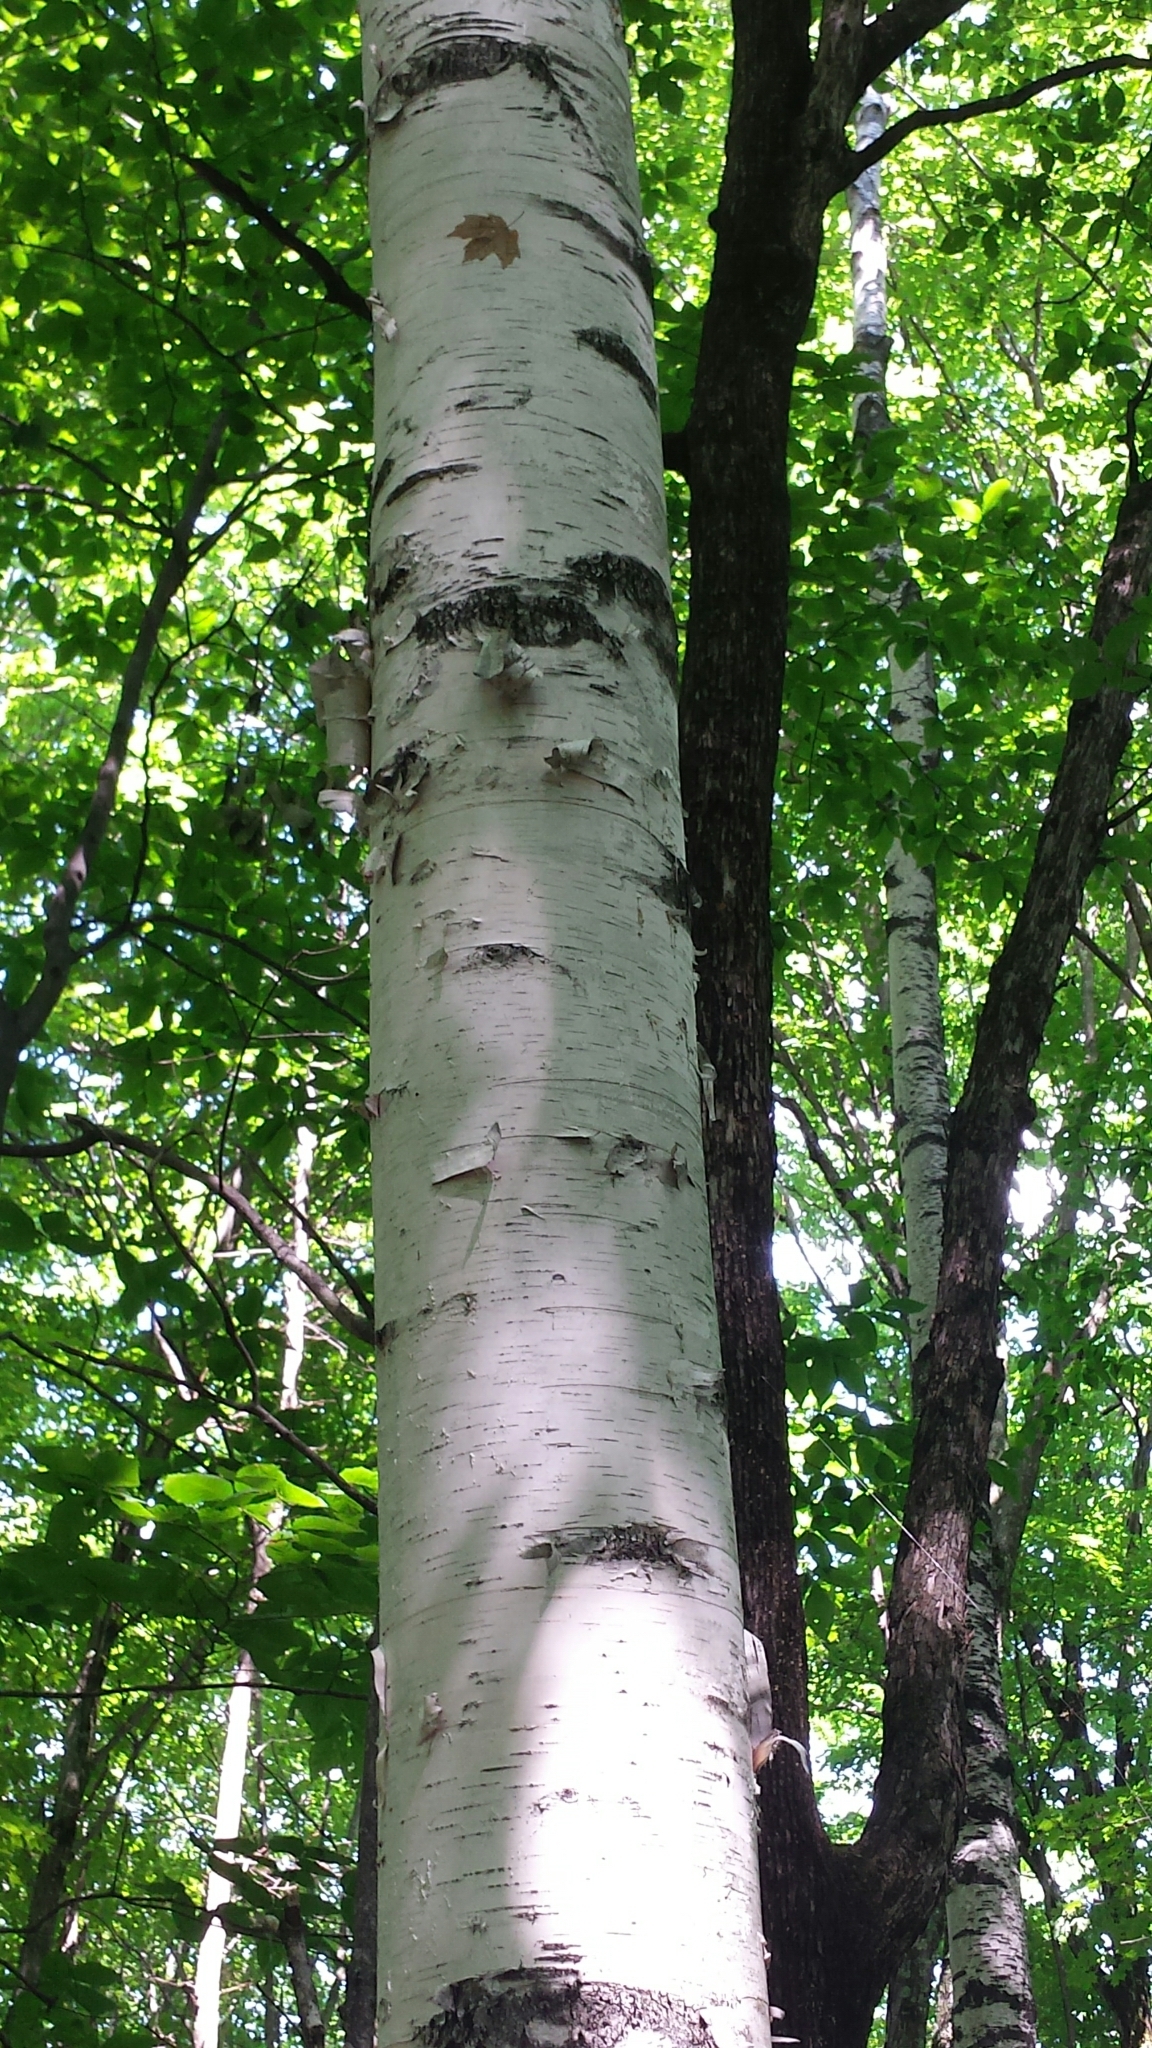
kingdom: Plantae
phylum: Tracheophyta
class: Magnoliopsida
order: Fagales
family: Betulaceae
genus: Betula
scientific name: Betula papyrifera
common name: Paper birch
